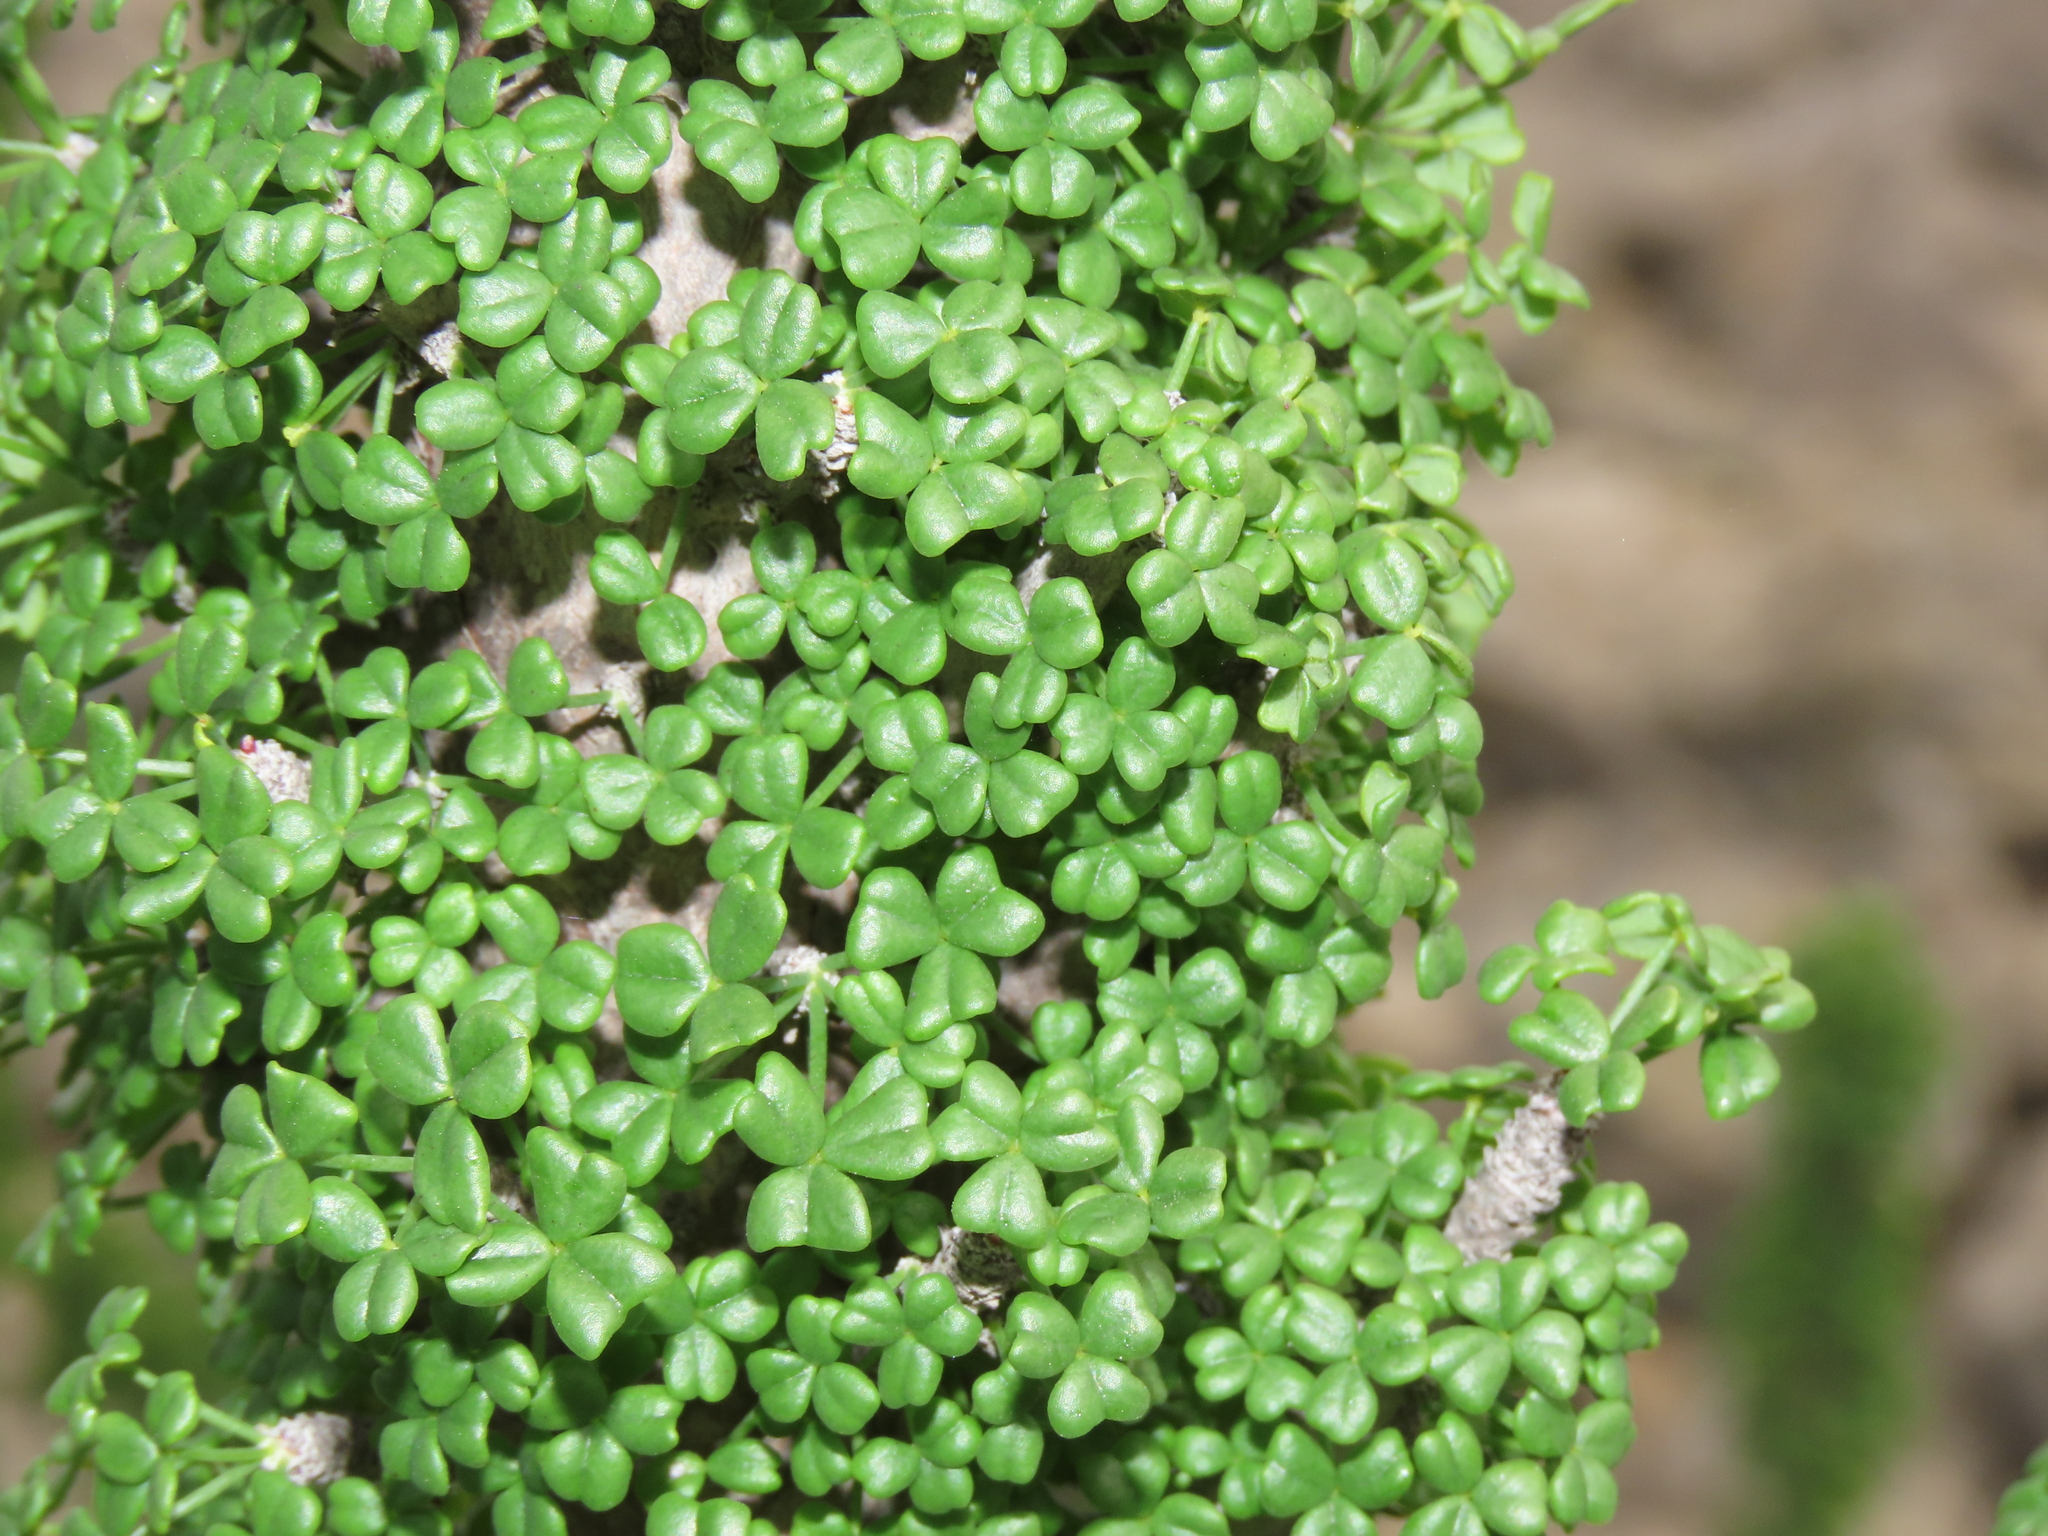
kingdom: Plantae
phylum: Tracheophyta
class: Magnoliopsida
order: Oxalidales
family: Oxalidaceae
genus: Oxalis
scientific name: Oxalis gigantea
